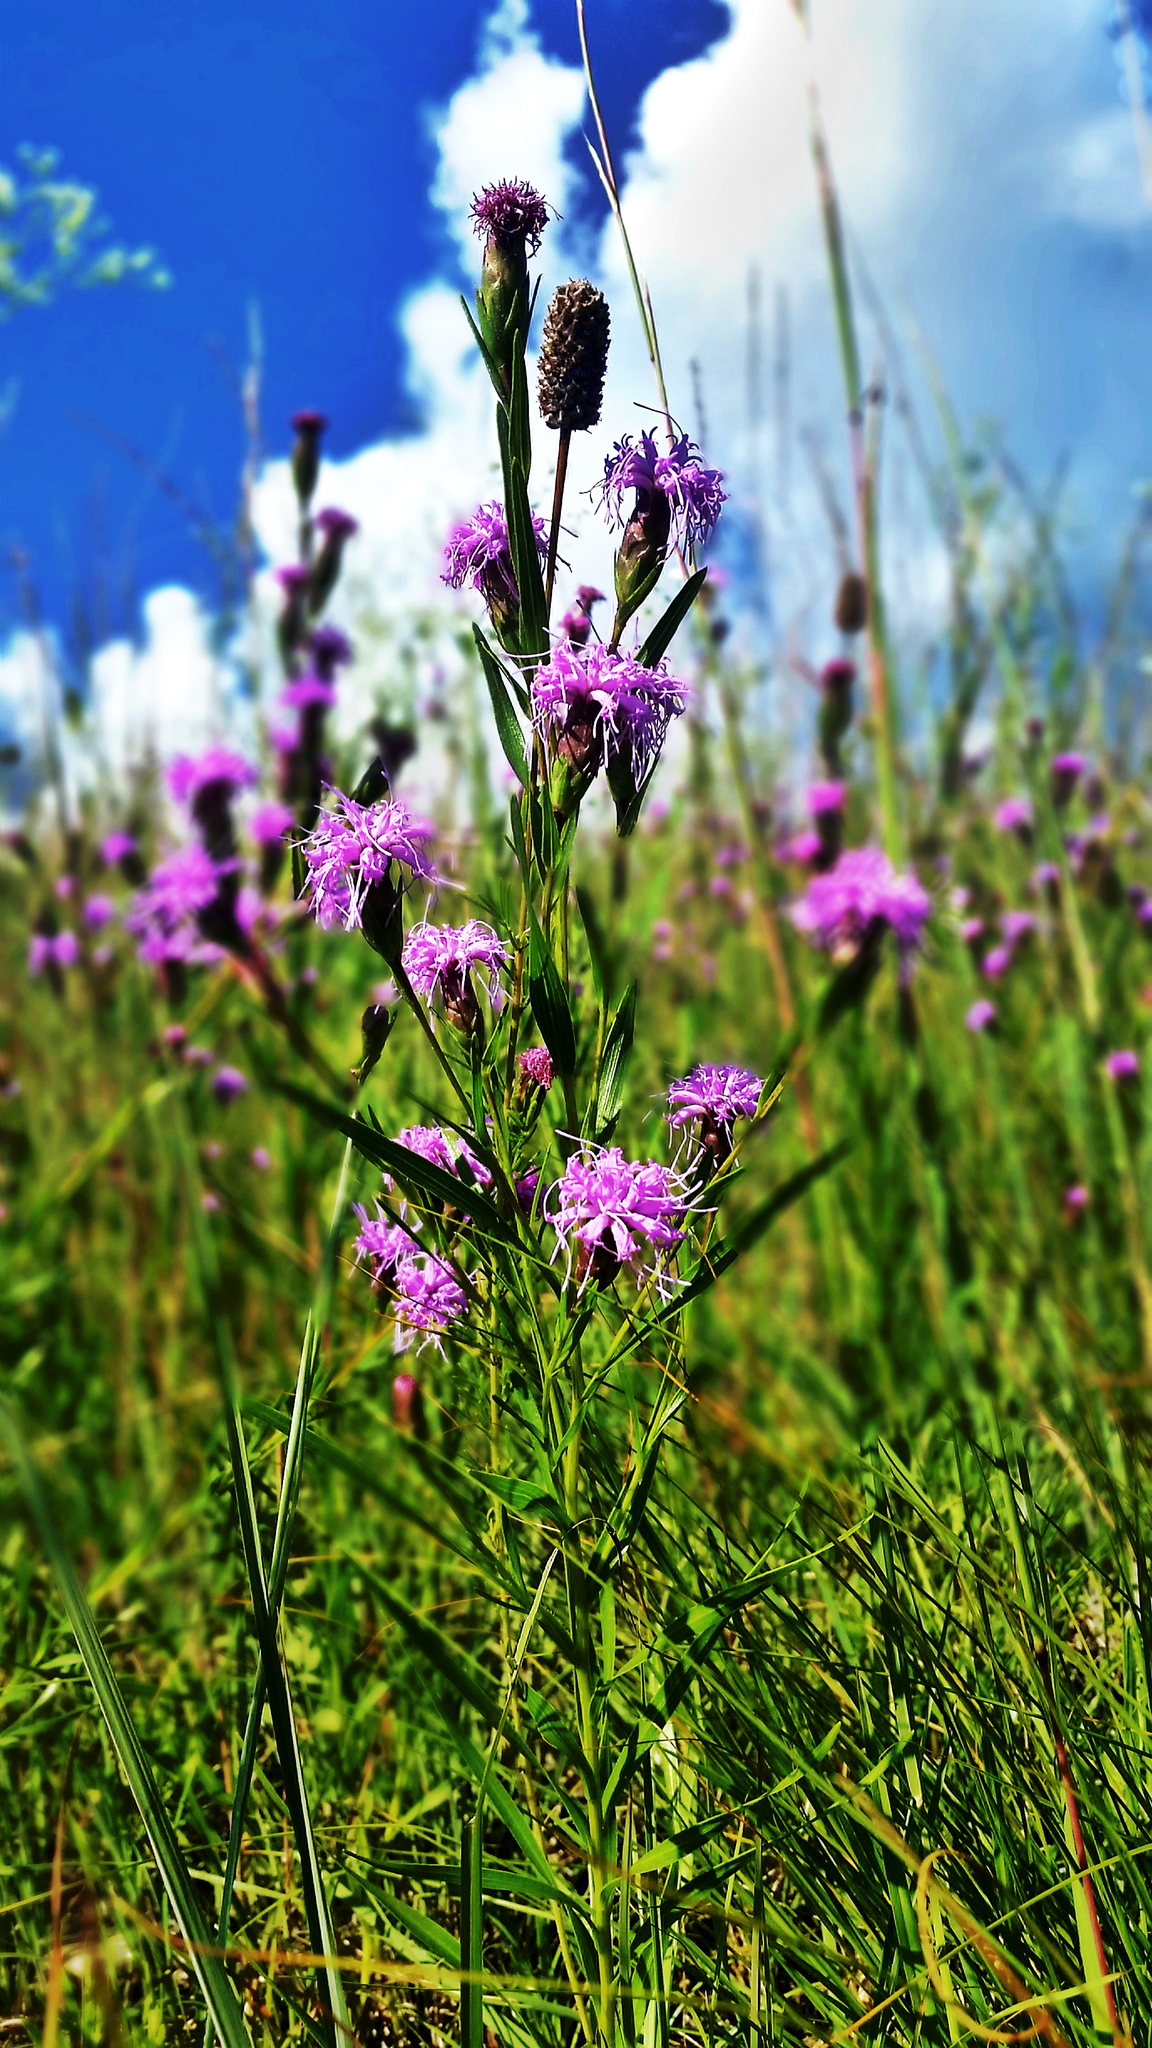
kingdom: Plantae
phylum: Tracheophyta
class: Magnoliopsida
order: Asterales
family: Asteraceae
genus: Liatris
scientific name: Liatris cylindracea
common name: Few-head blazingstar
